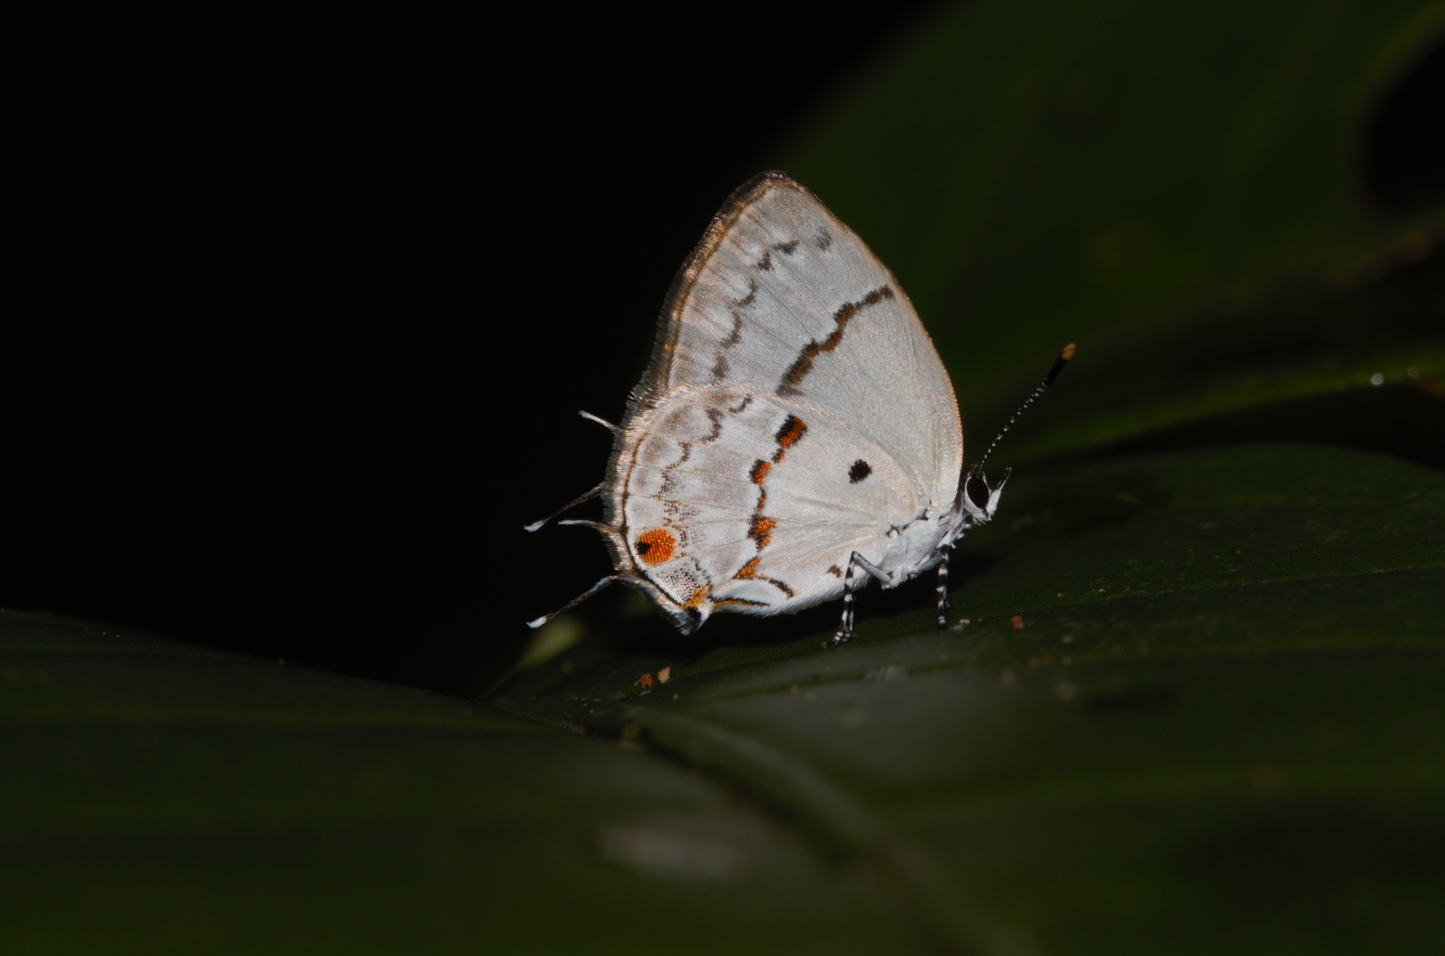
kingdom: Animalia
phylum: Arthropoda
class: Insecta
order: Lepidoptera
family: Lycaenidae
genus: Thecla
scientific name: Thecla celmus
